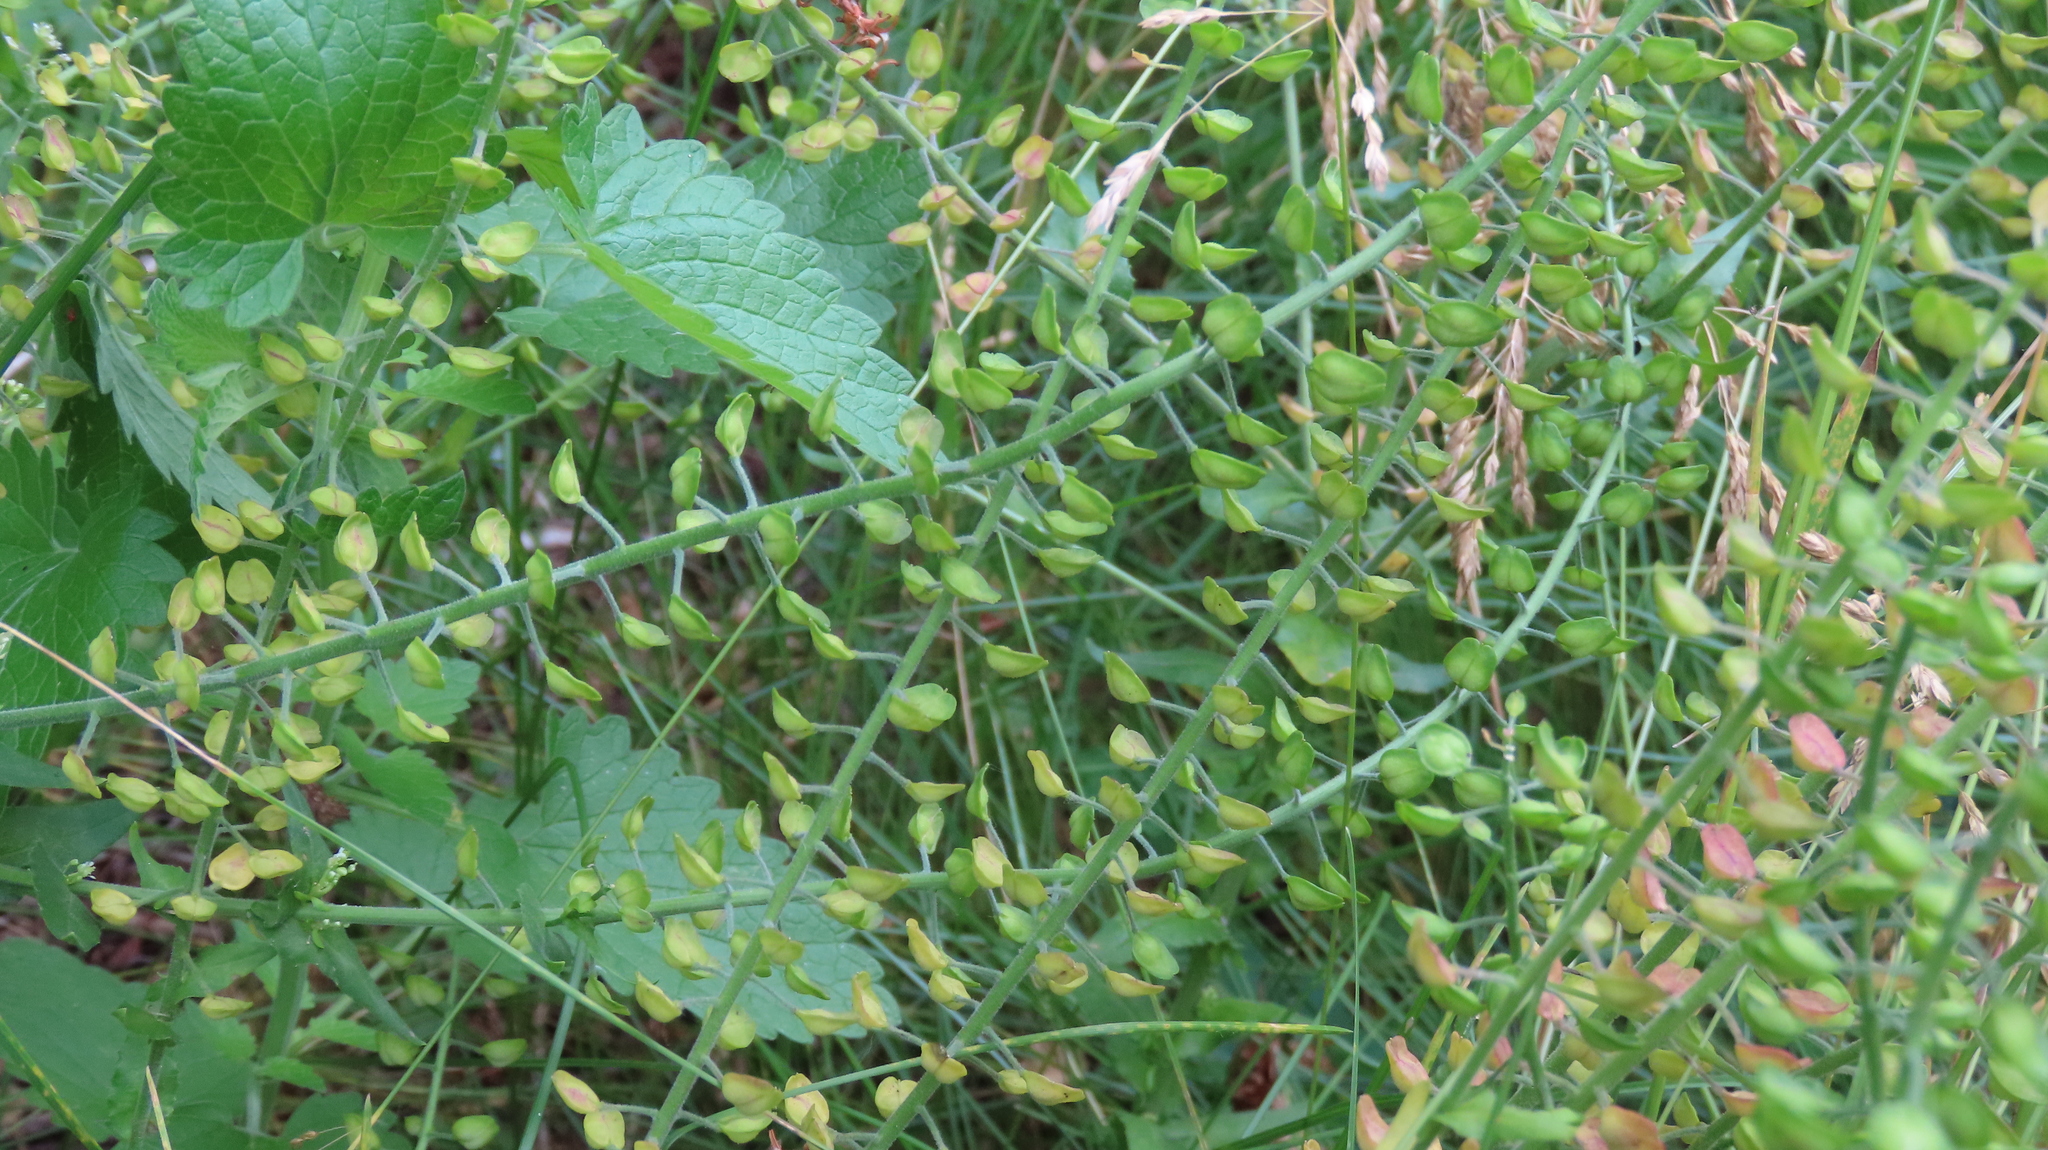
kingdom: Plantae
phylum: Tracheophyta
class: Magnoliopsida
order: Brassicales
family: Brassicaceae
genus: Lepidium
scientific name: Lepidium campestre
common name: Field pepperwort
